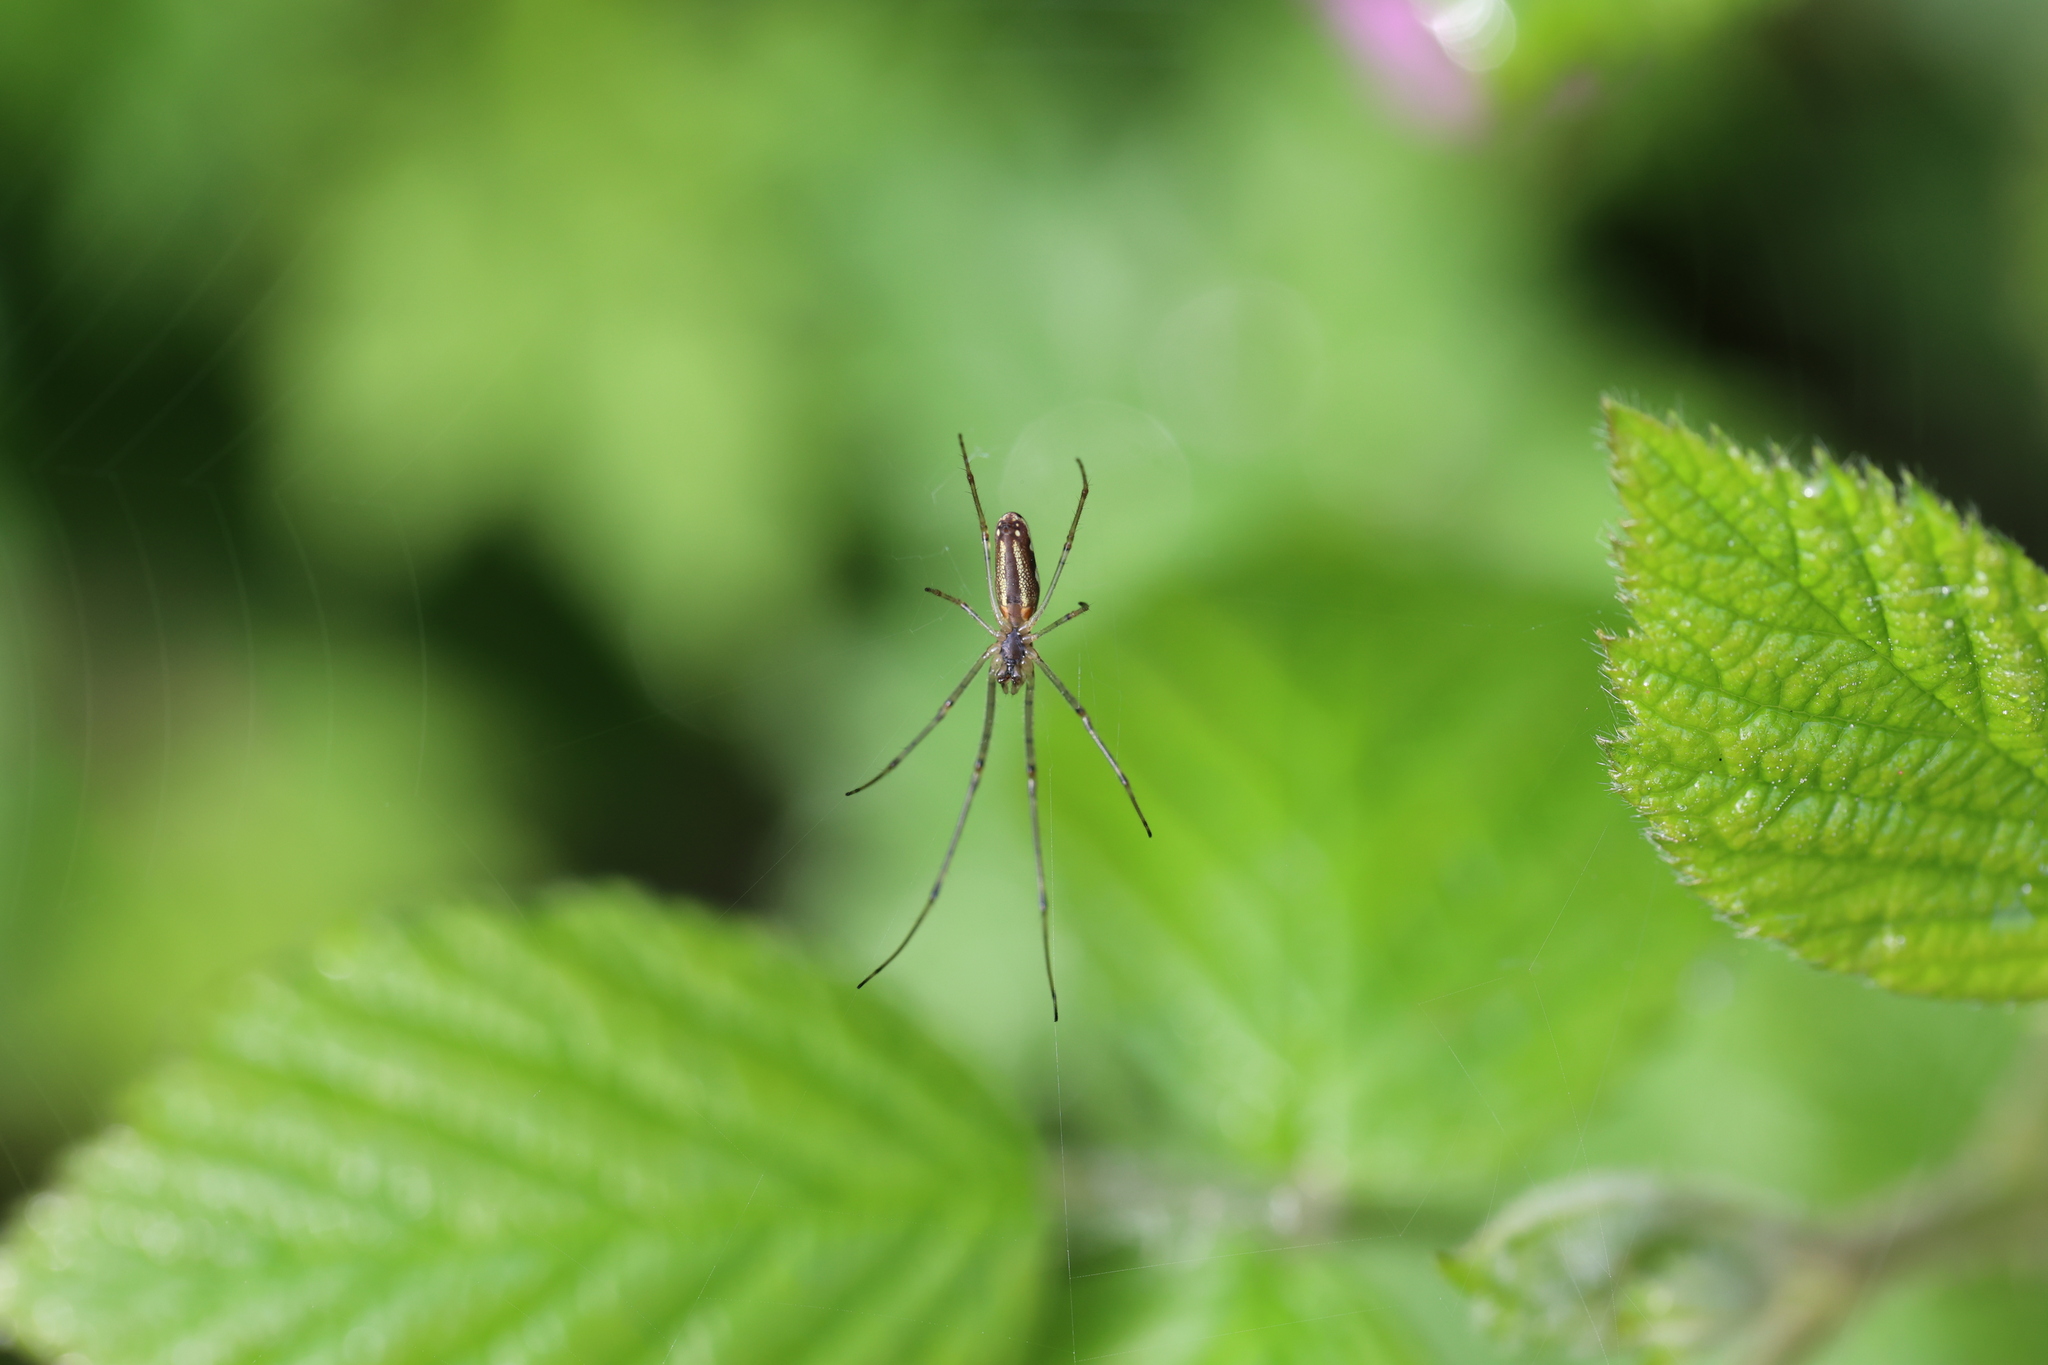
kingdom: Animalia
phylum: Arthropoda
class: Arachnida
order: Araneae
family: Tetragnathidae
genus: Tetragnatha
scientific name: Tetragnatha extensa
